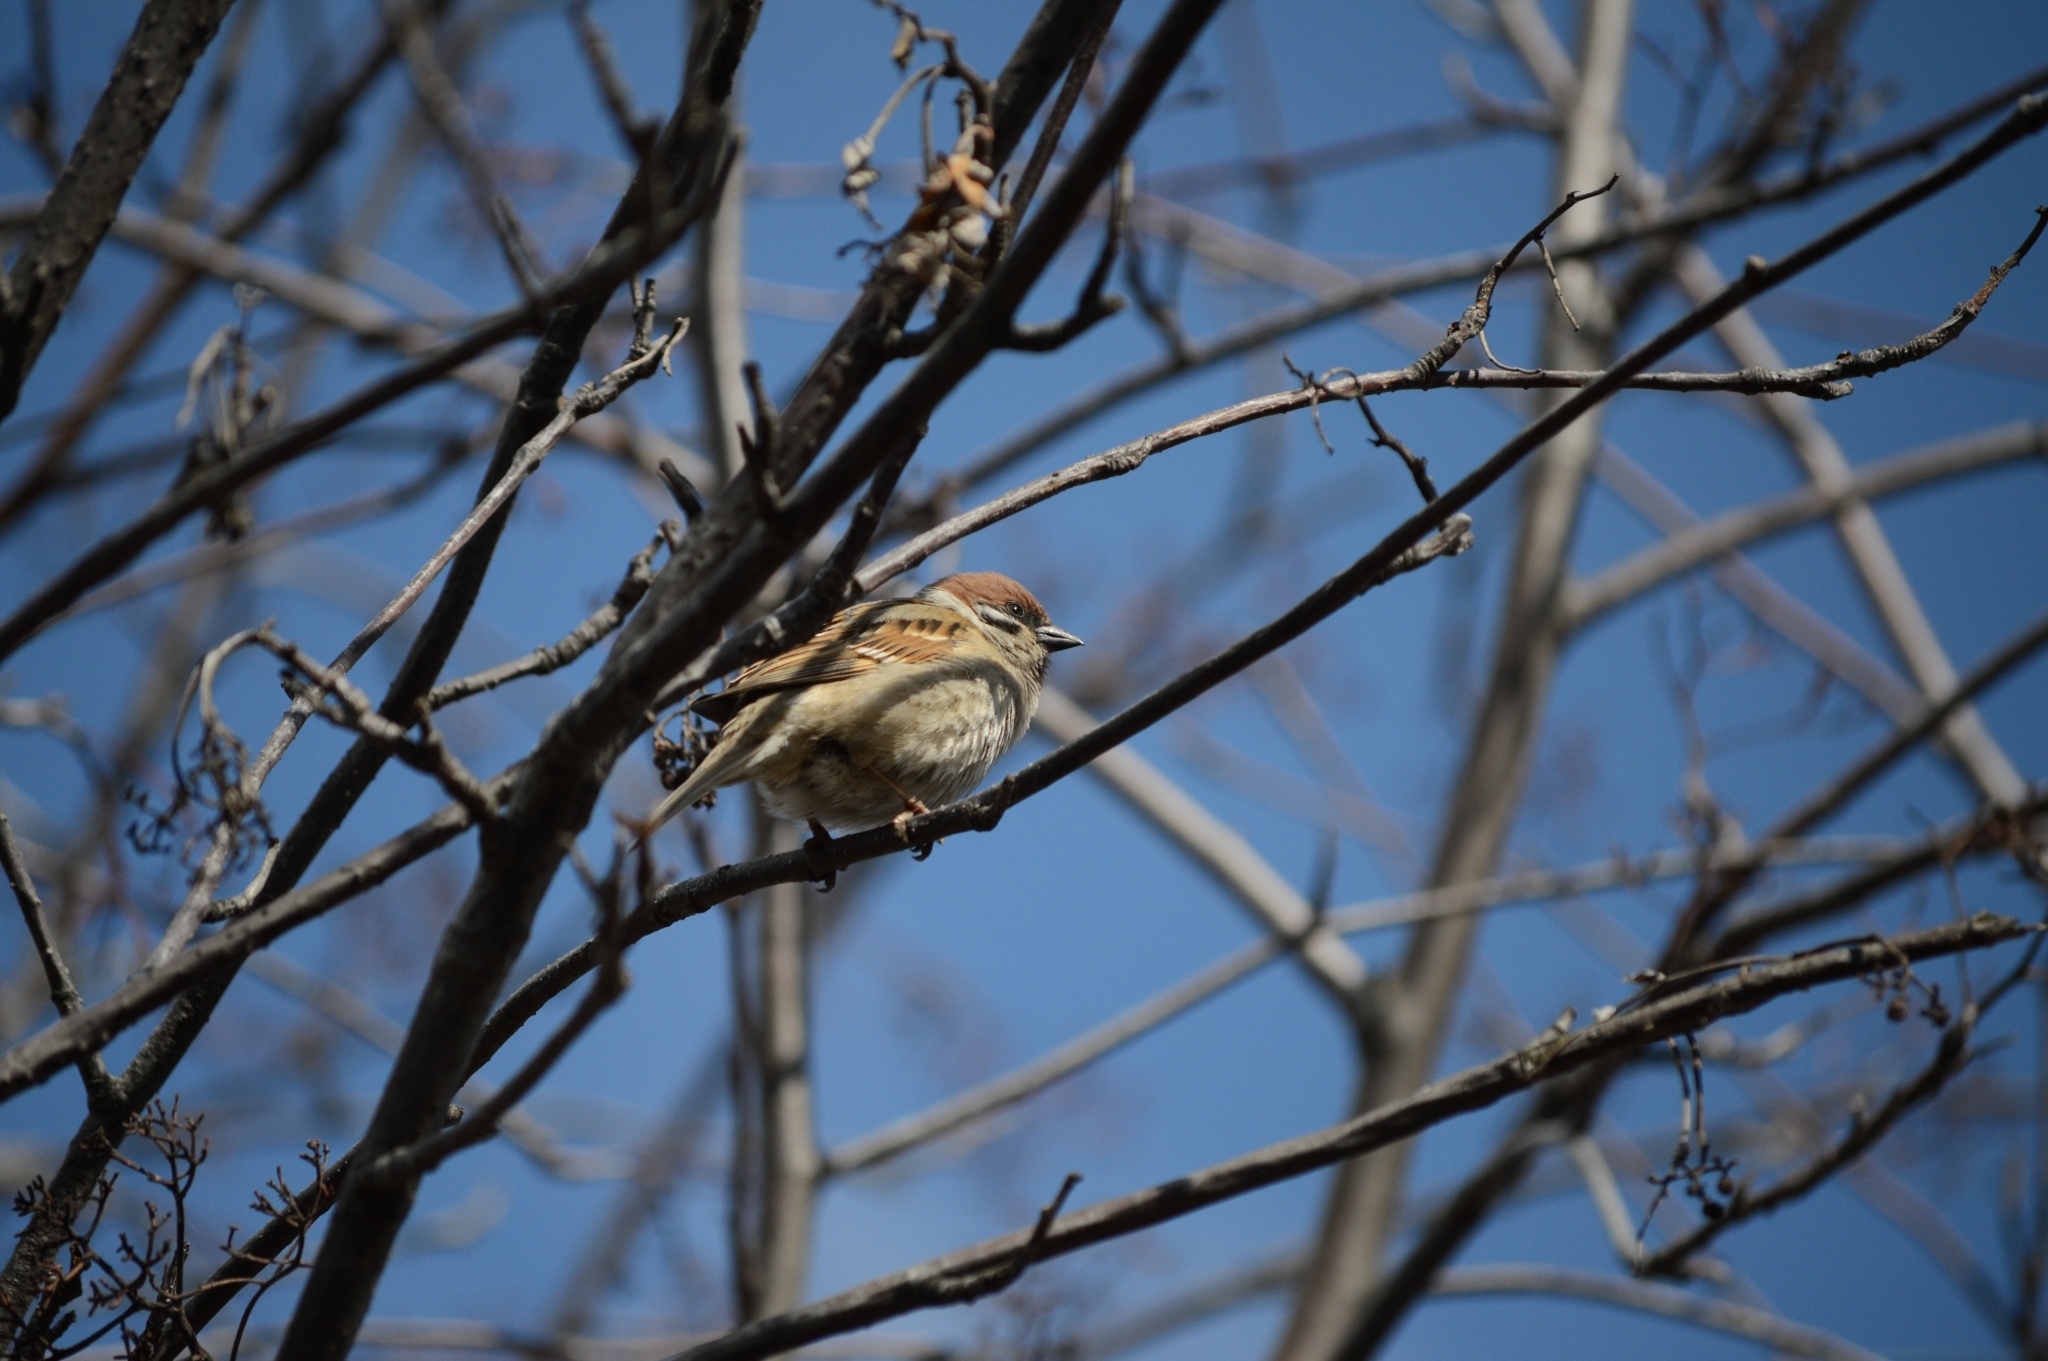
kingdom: Animalia
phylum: Chordata
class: Aves
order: Passeriformes
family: Passeridae
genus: Passer
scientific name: Passer montanus
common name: Eurasian tree sparrow
